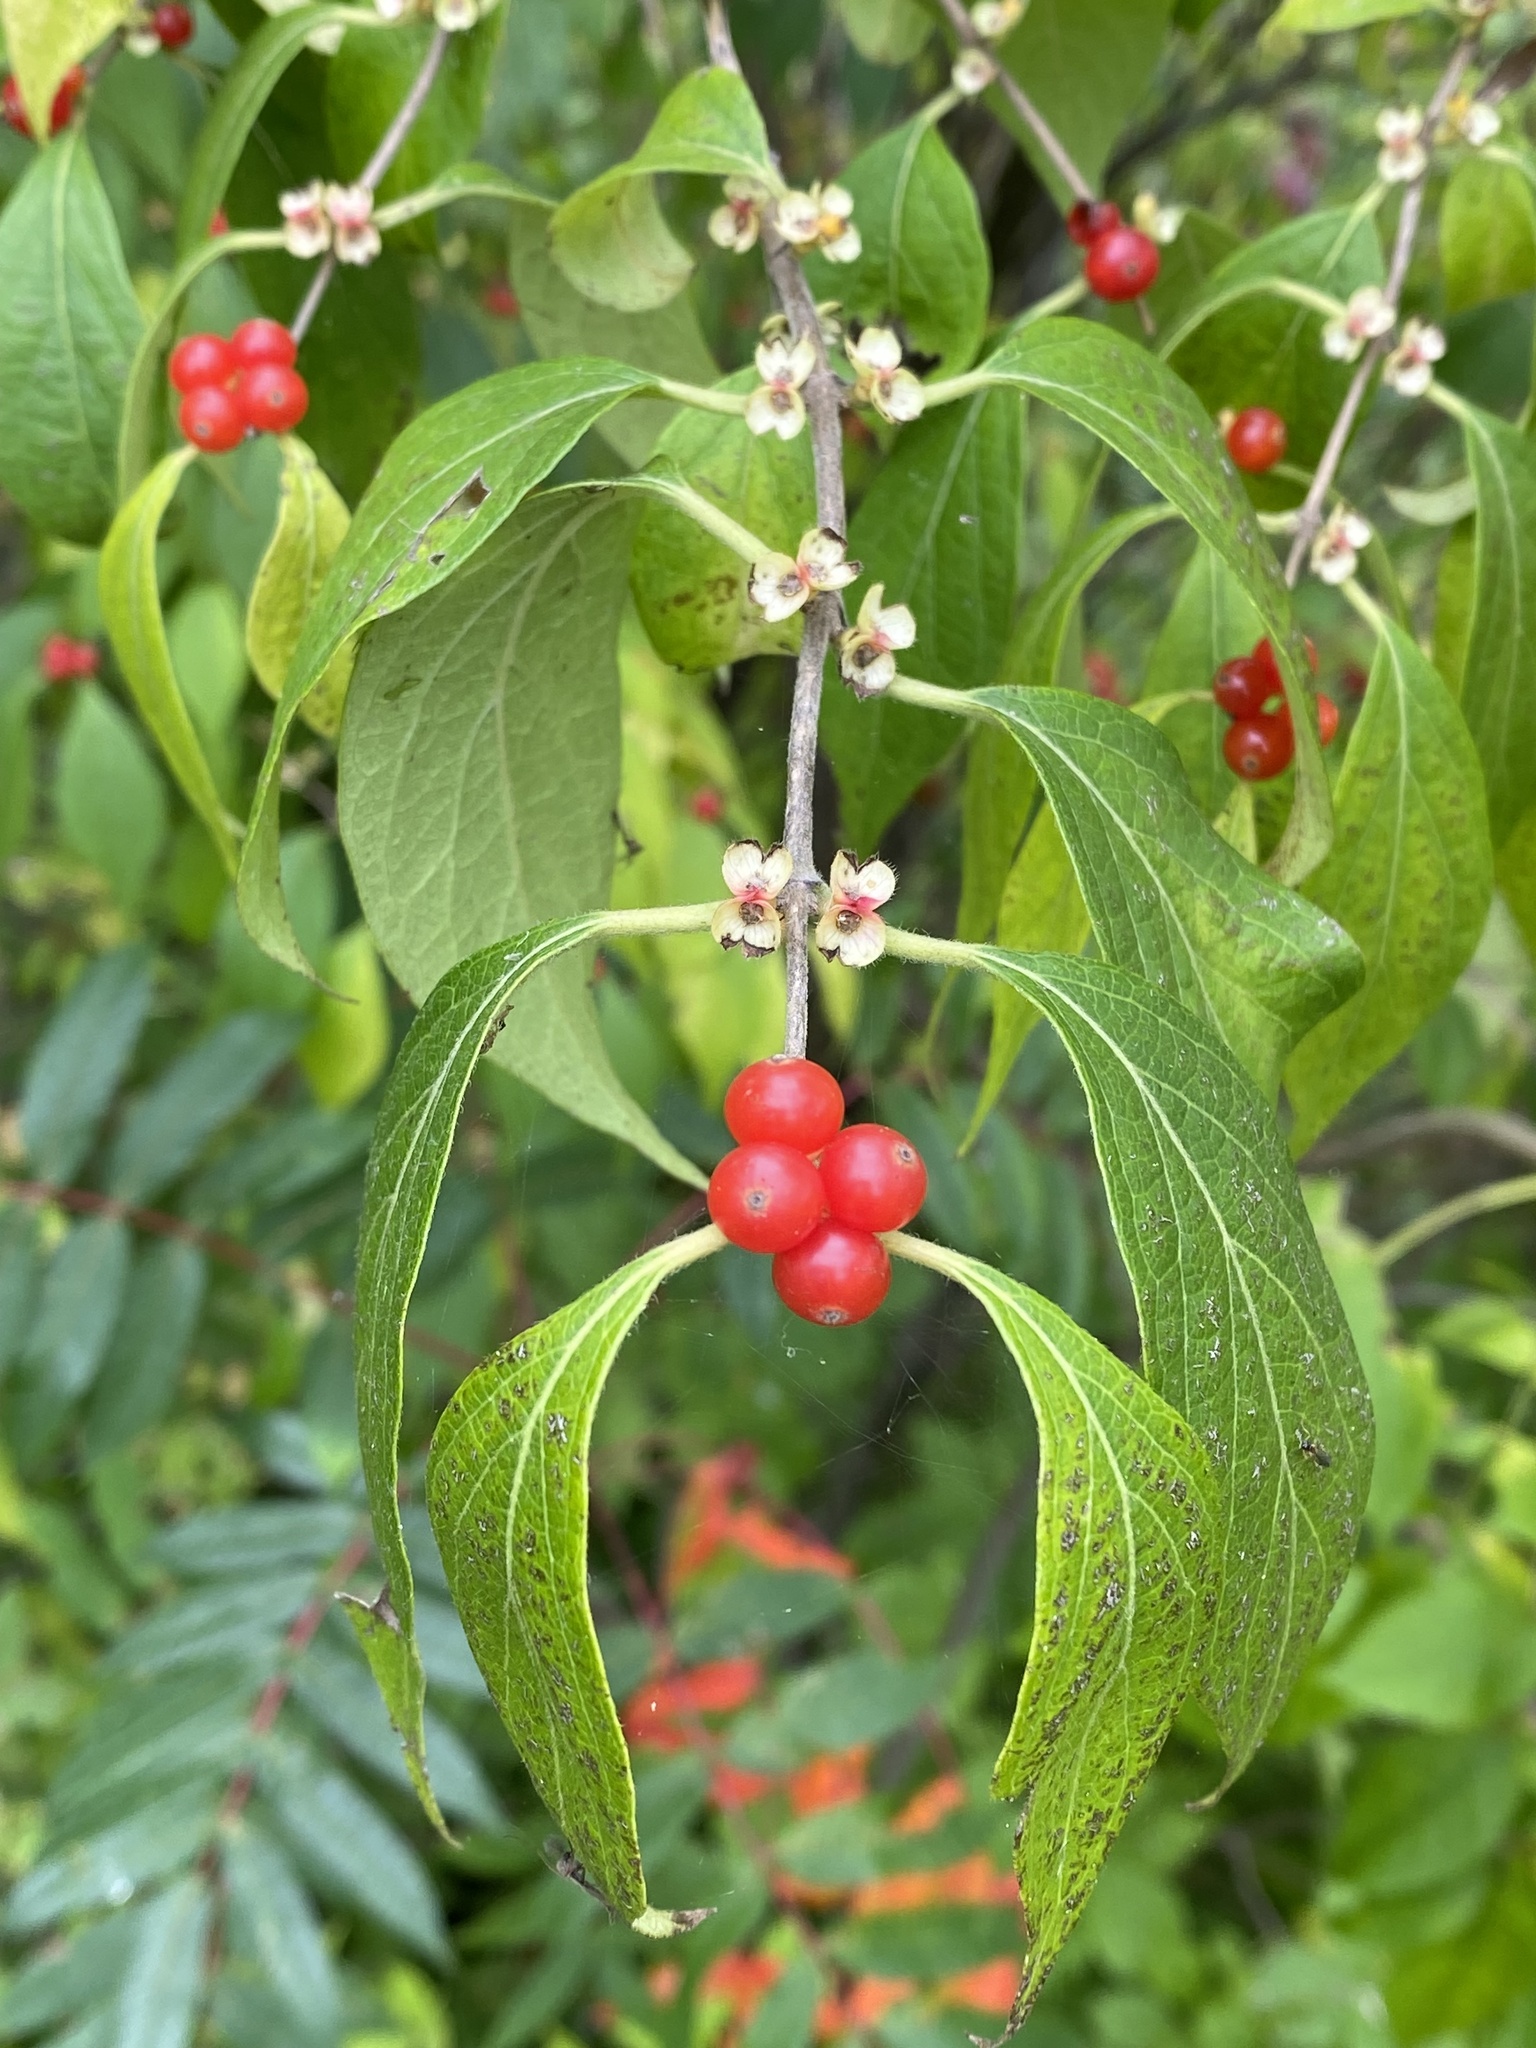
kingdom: Plantae
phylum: Tracheophyta
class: Magnoliopsida
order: Dipsacales
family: Caprifoliaceae
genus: Lonicera
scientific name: Lonicera maackii
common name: Amur honeysuckle
